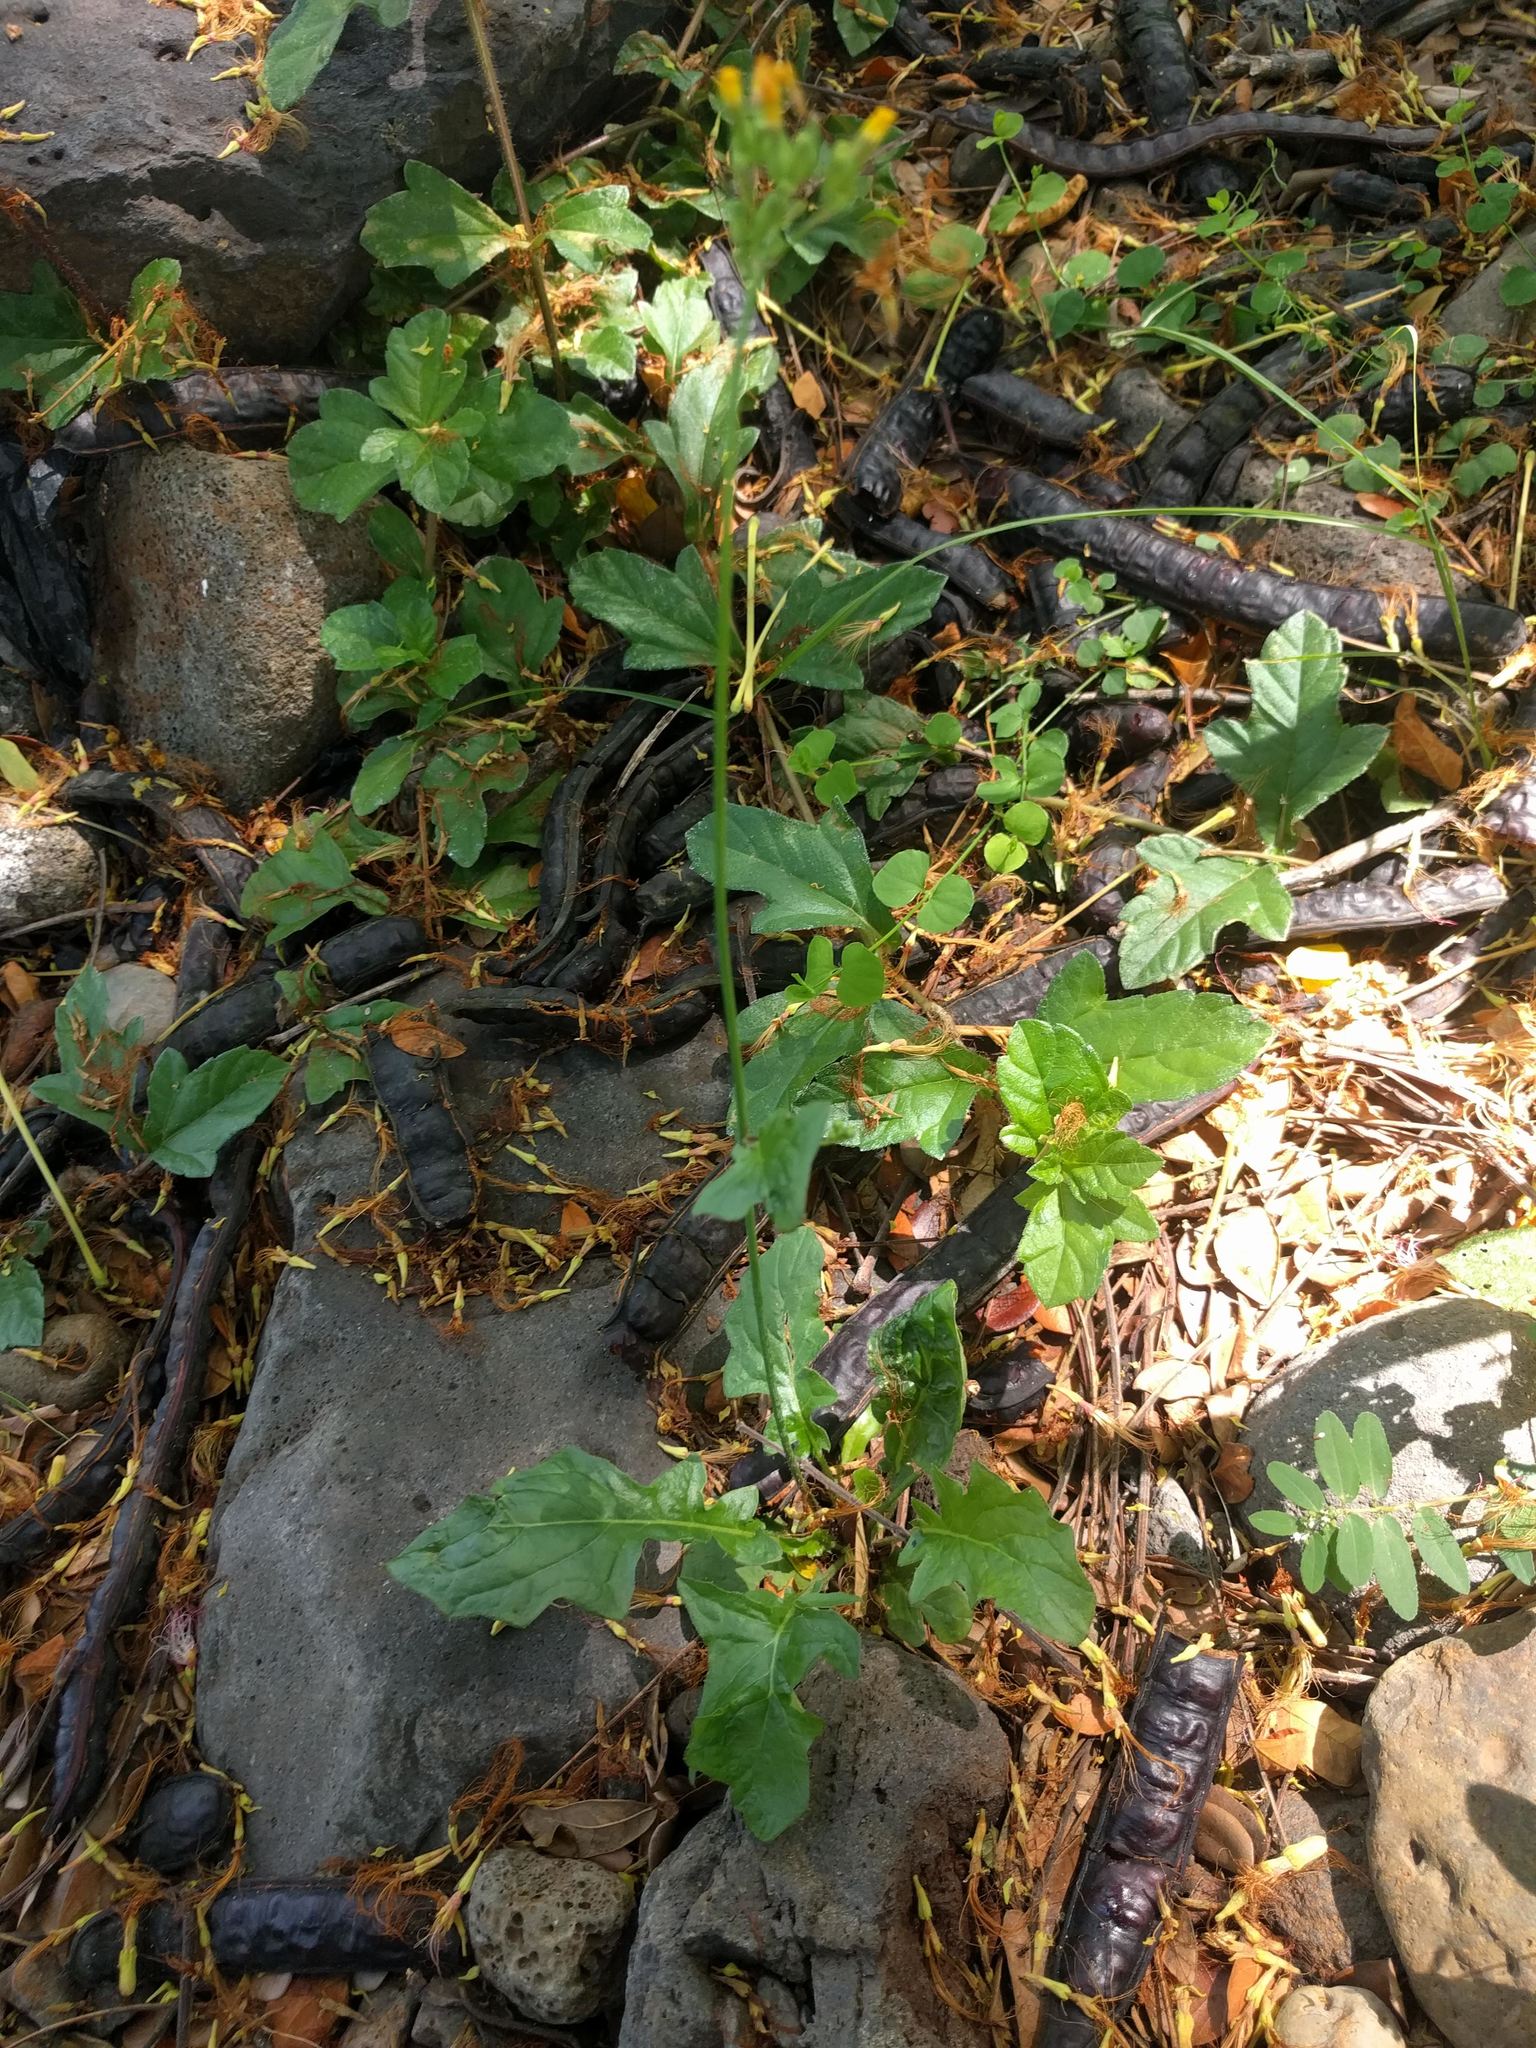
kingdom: Plantae
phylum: Tracheophyta
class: Magnoliopsida
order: Asterales
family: Asteraceae
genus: Youngia
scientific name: Youngia japonica
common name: Oriental false hawksbeard
